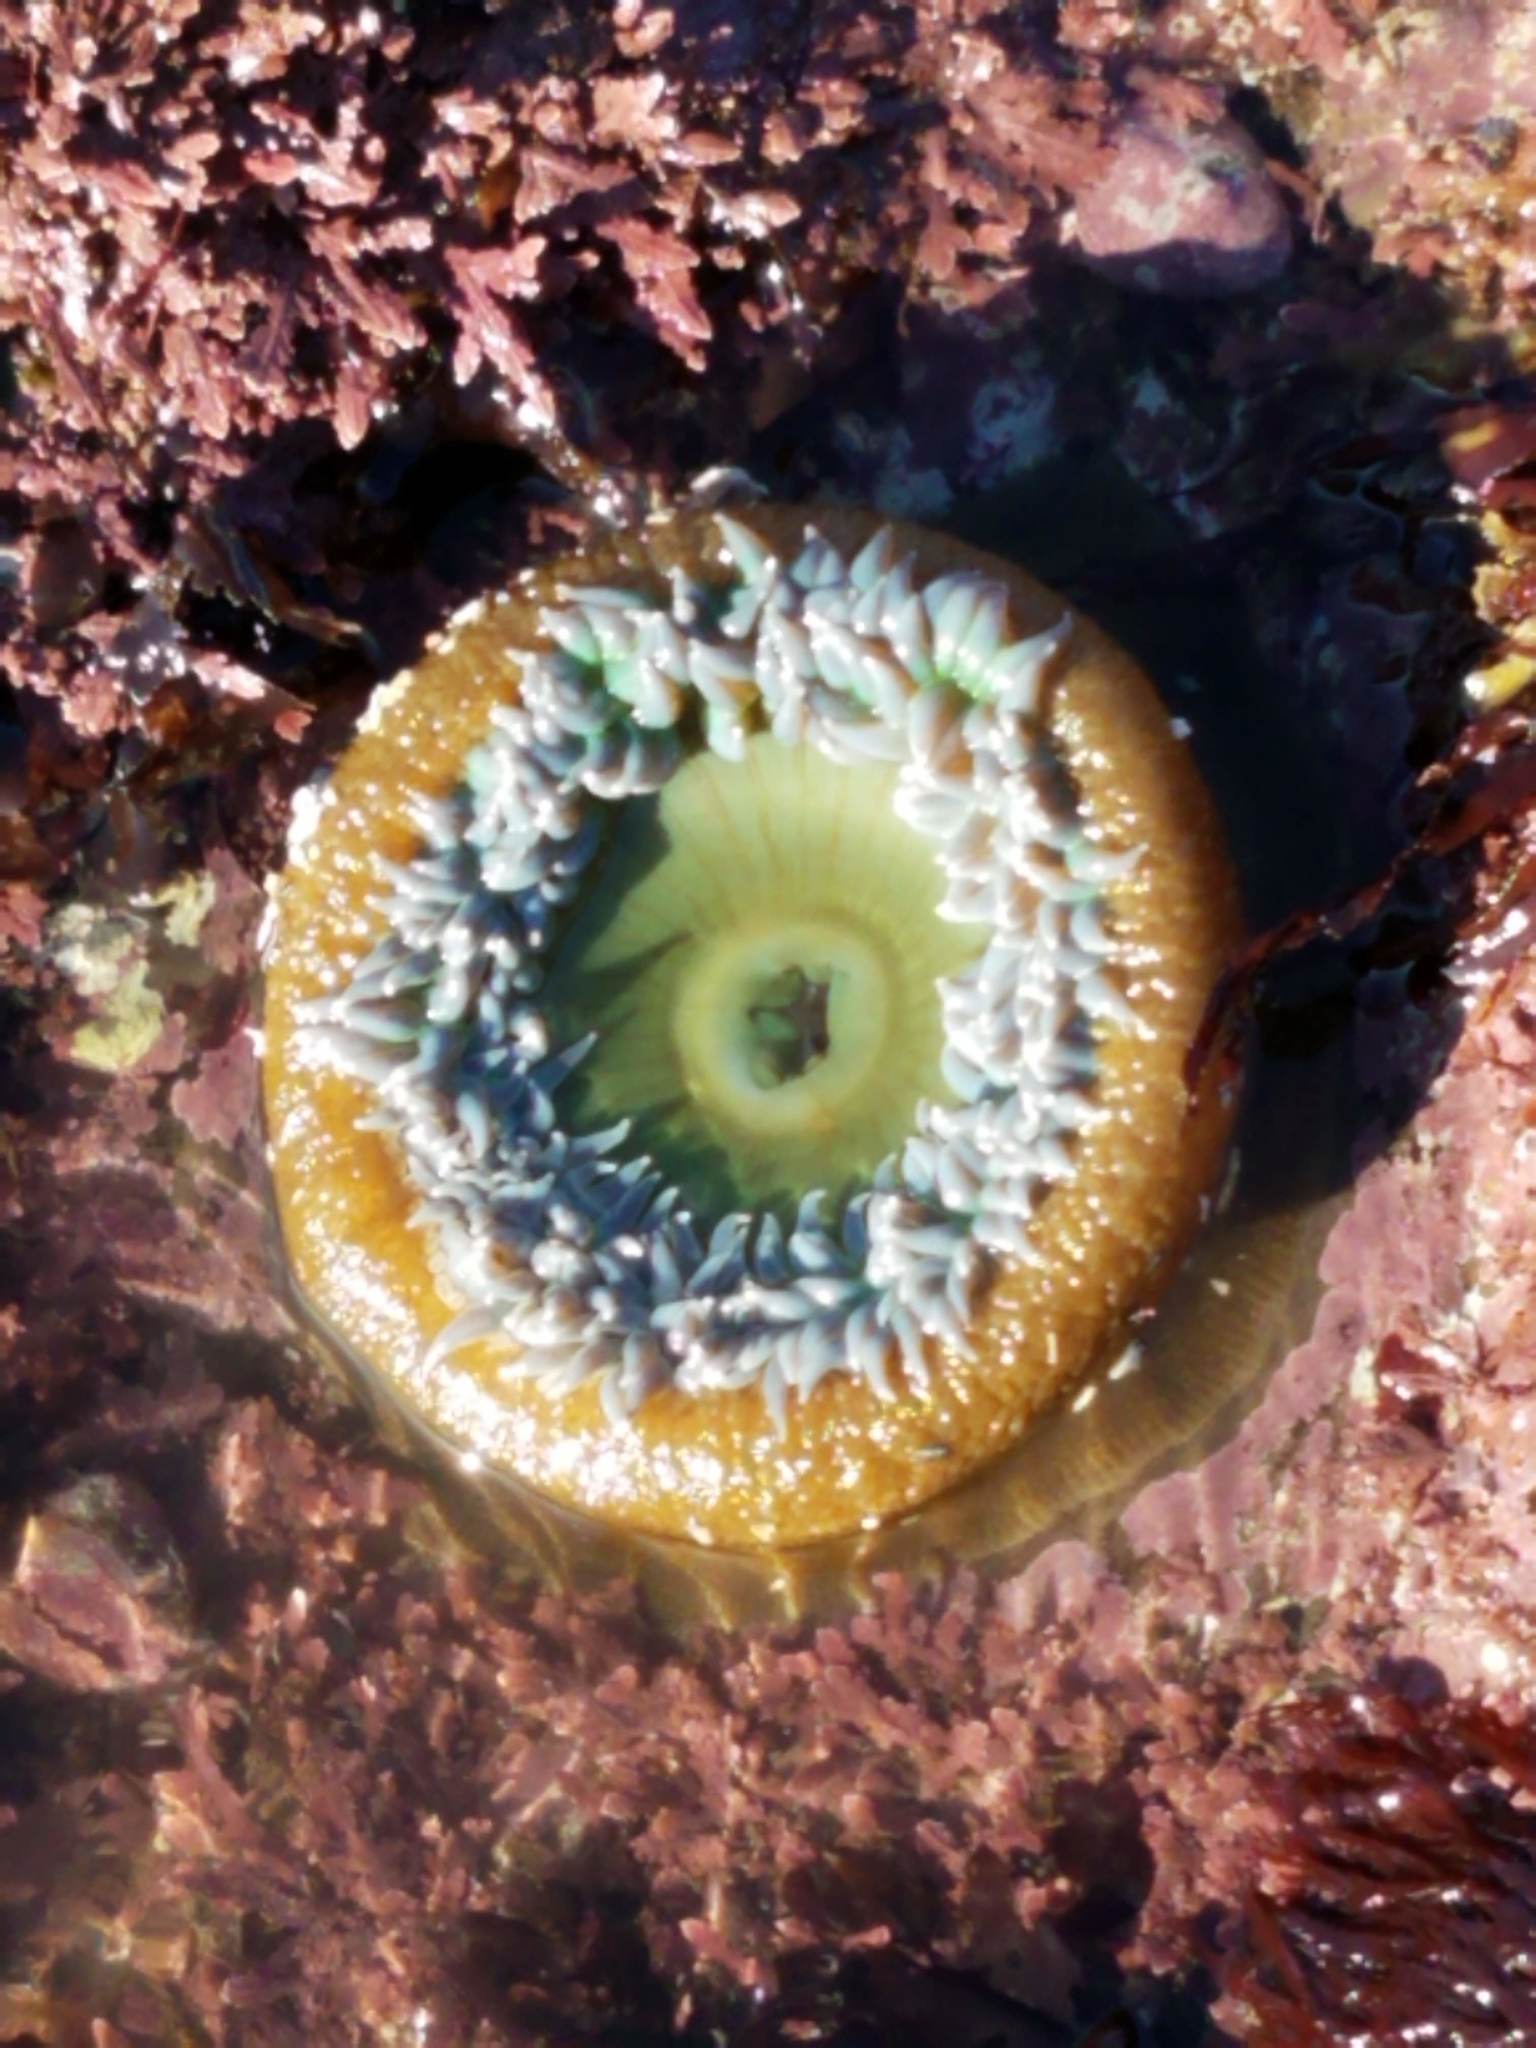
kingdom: Animalia
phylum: Cnidaria
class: Anthozoa
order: Actiniaria
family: Actiniidae
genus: Anthopleura
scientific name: Anthopleura xanthogrammica
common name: Giant green anemone
